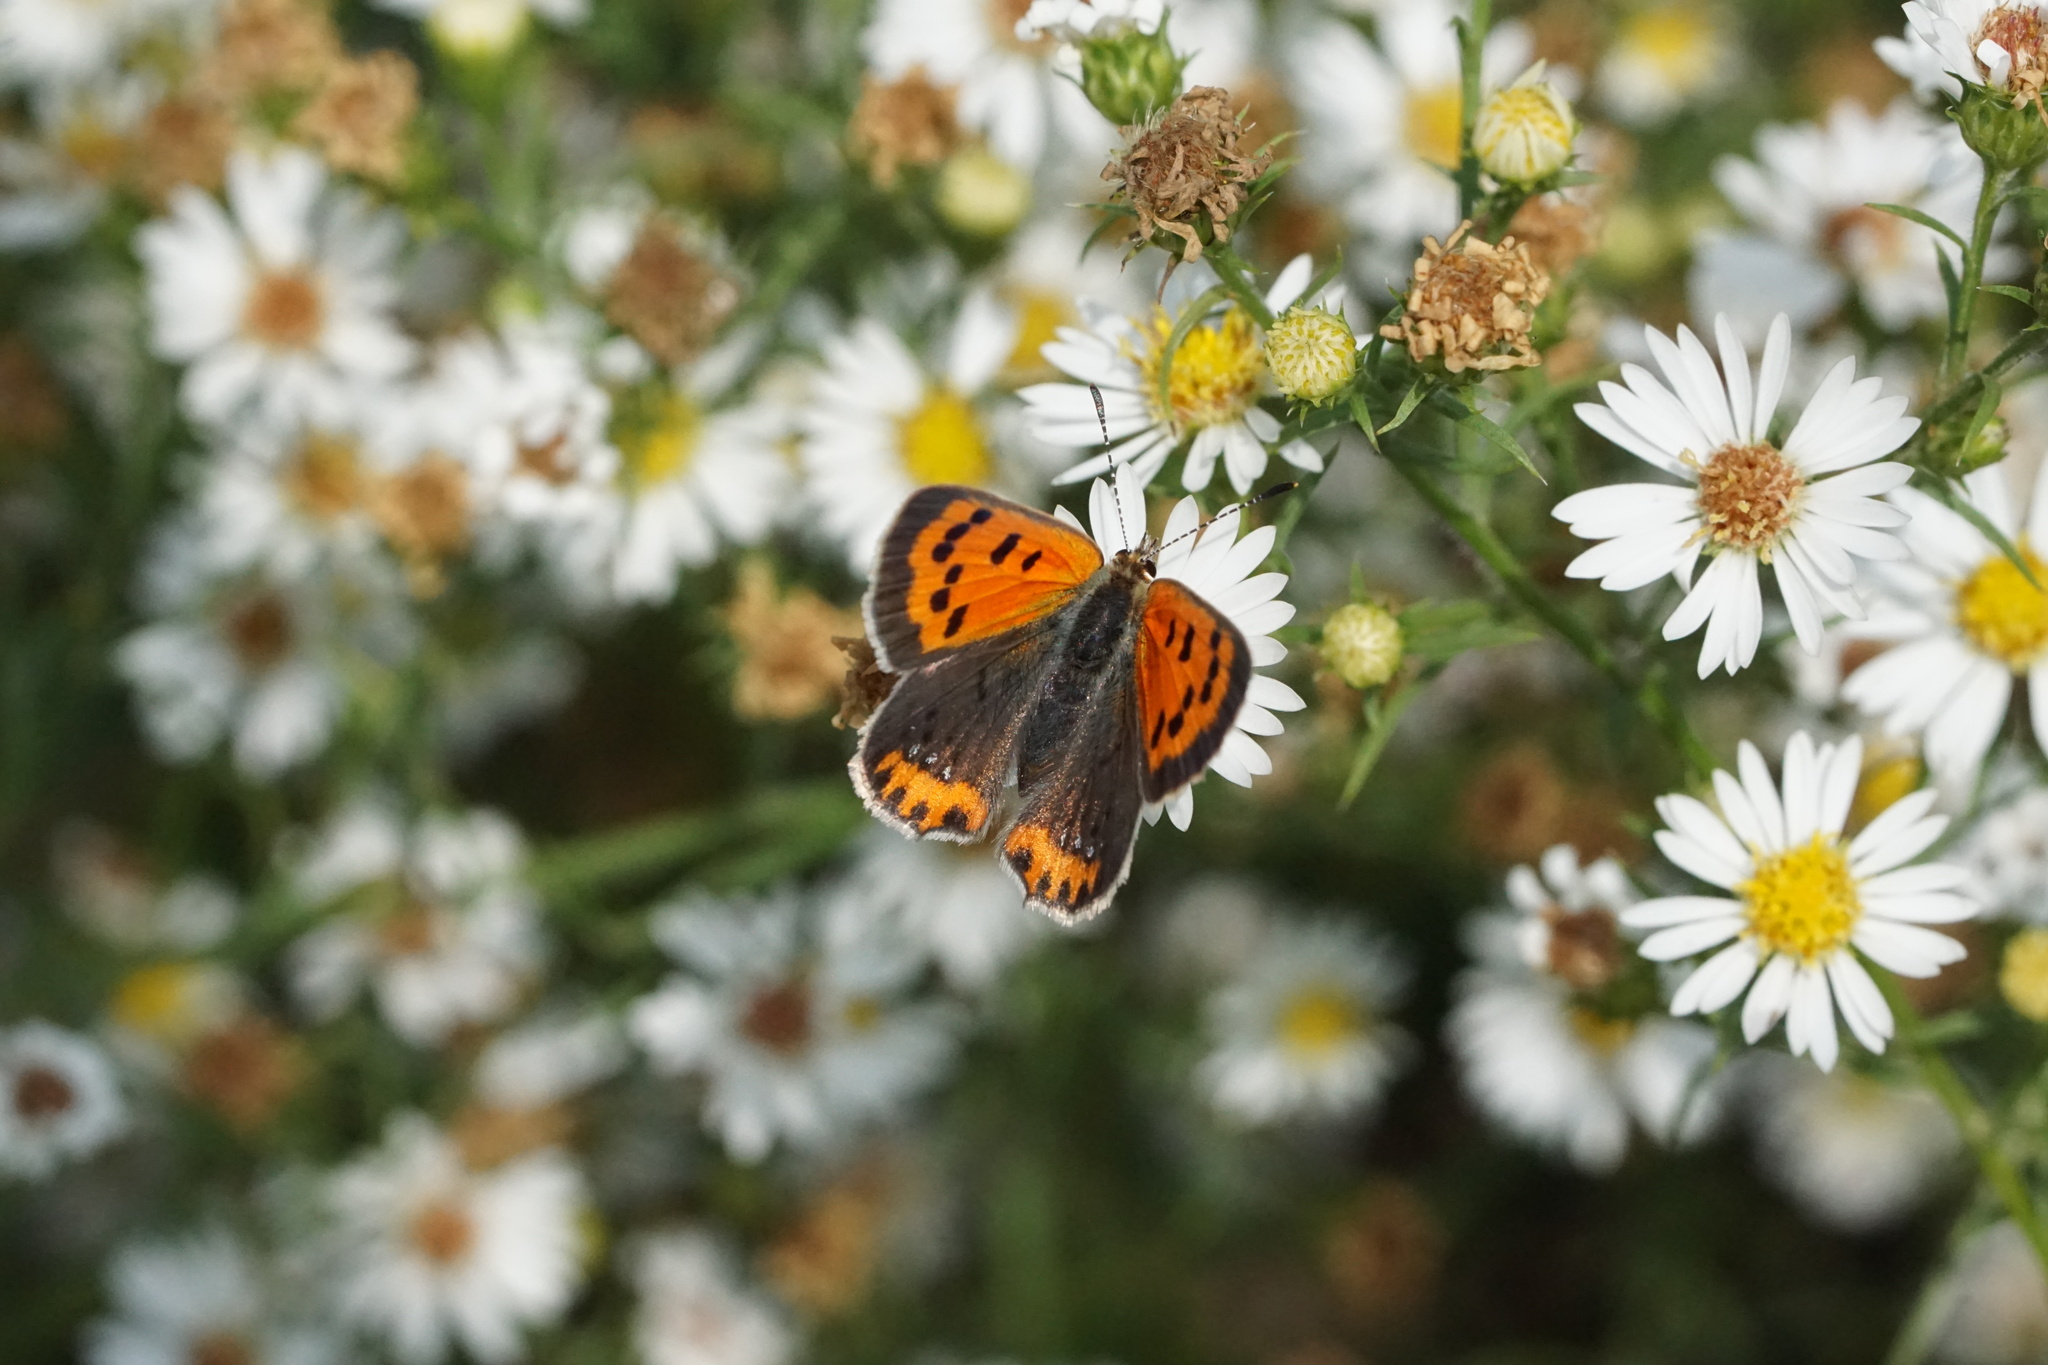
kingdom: Animalia
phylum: Arthropoda
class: Insecta
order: Lepidoptera
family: Lycaenidae
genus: Lycaena
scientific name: Lycaena hypophlaeas
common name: American copper
